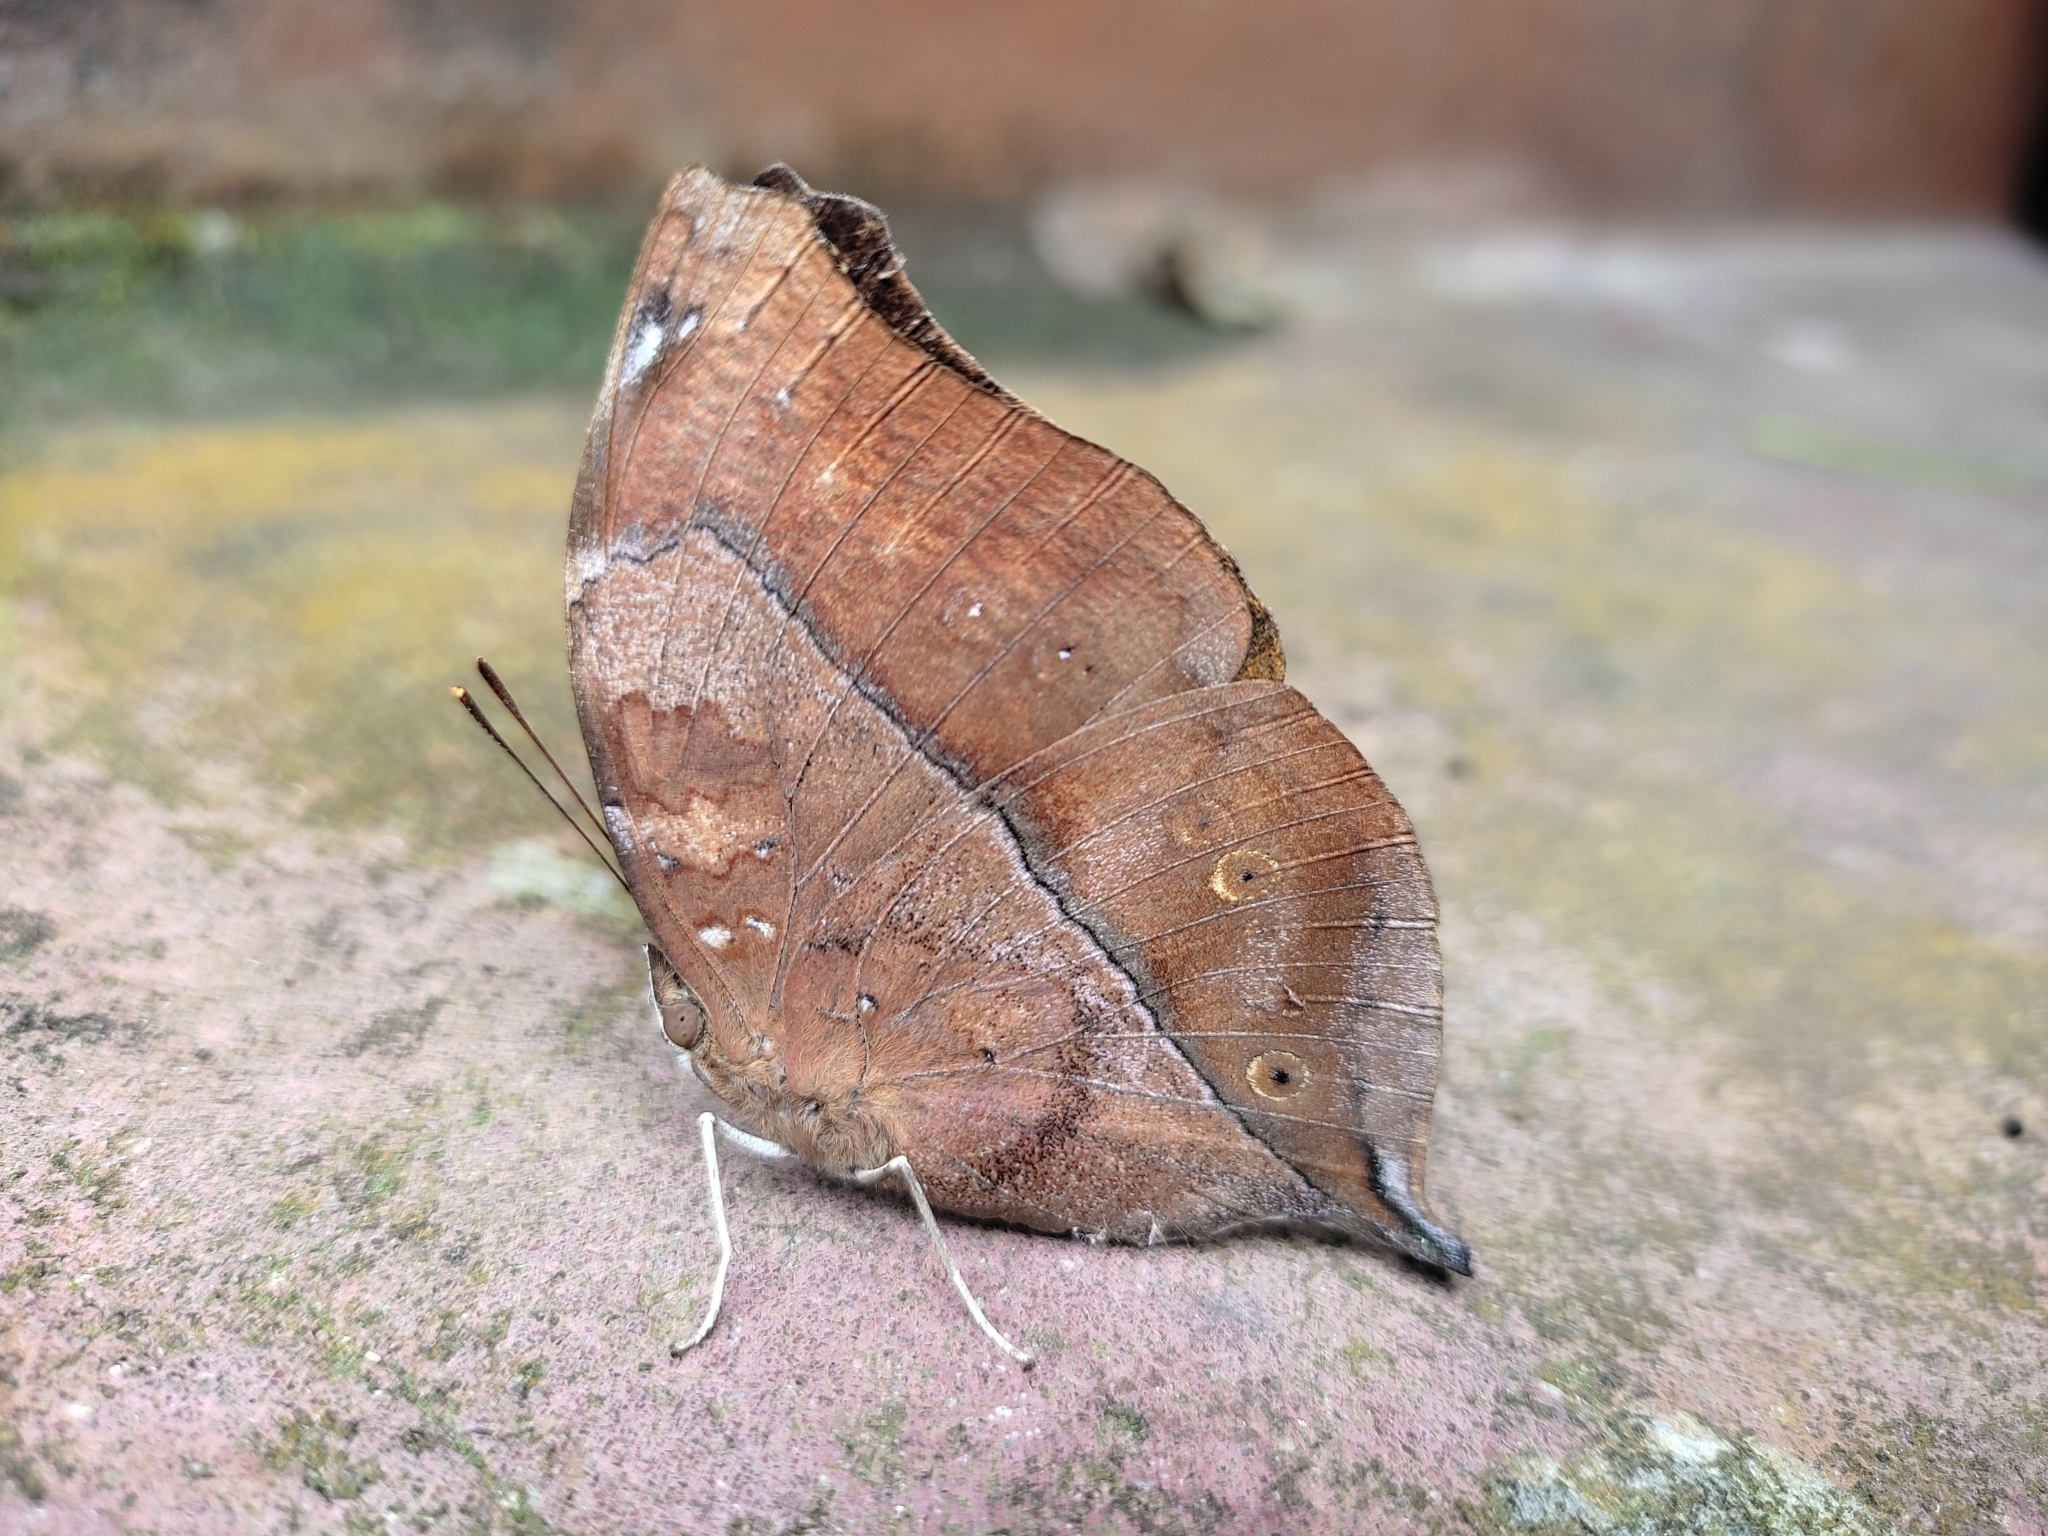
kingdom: Animalia
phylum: Arthropoda
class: Insecta
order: Lepidoptera
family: Nymphalidae
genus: Doleschallia
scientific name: Doleschallia bisaltide
